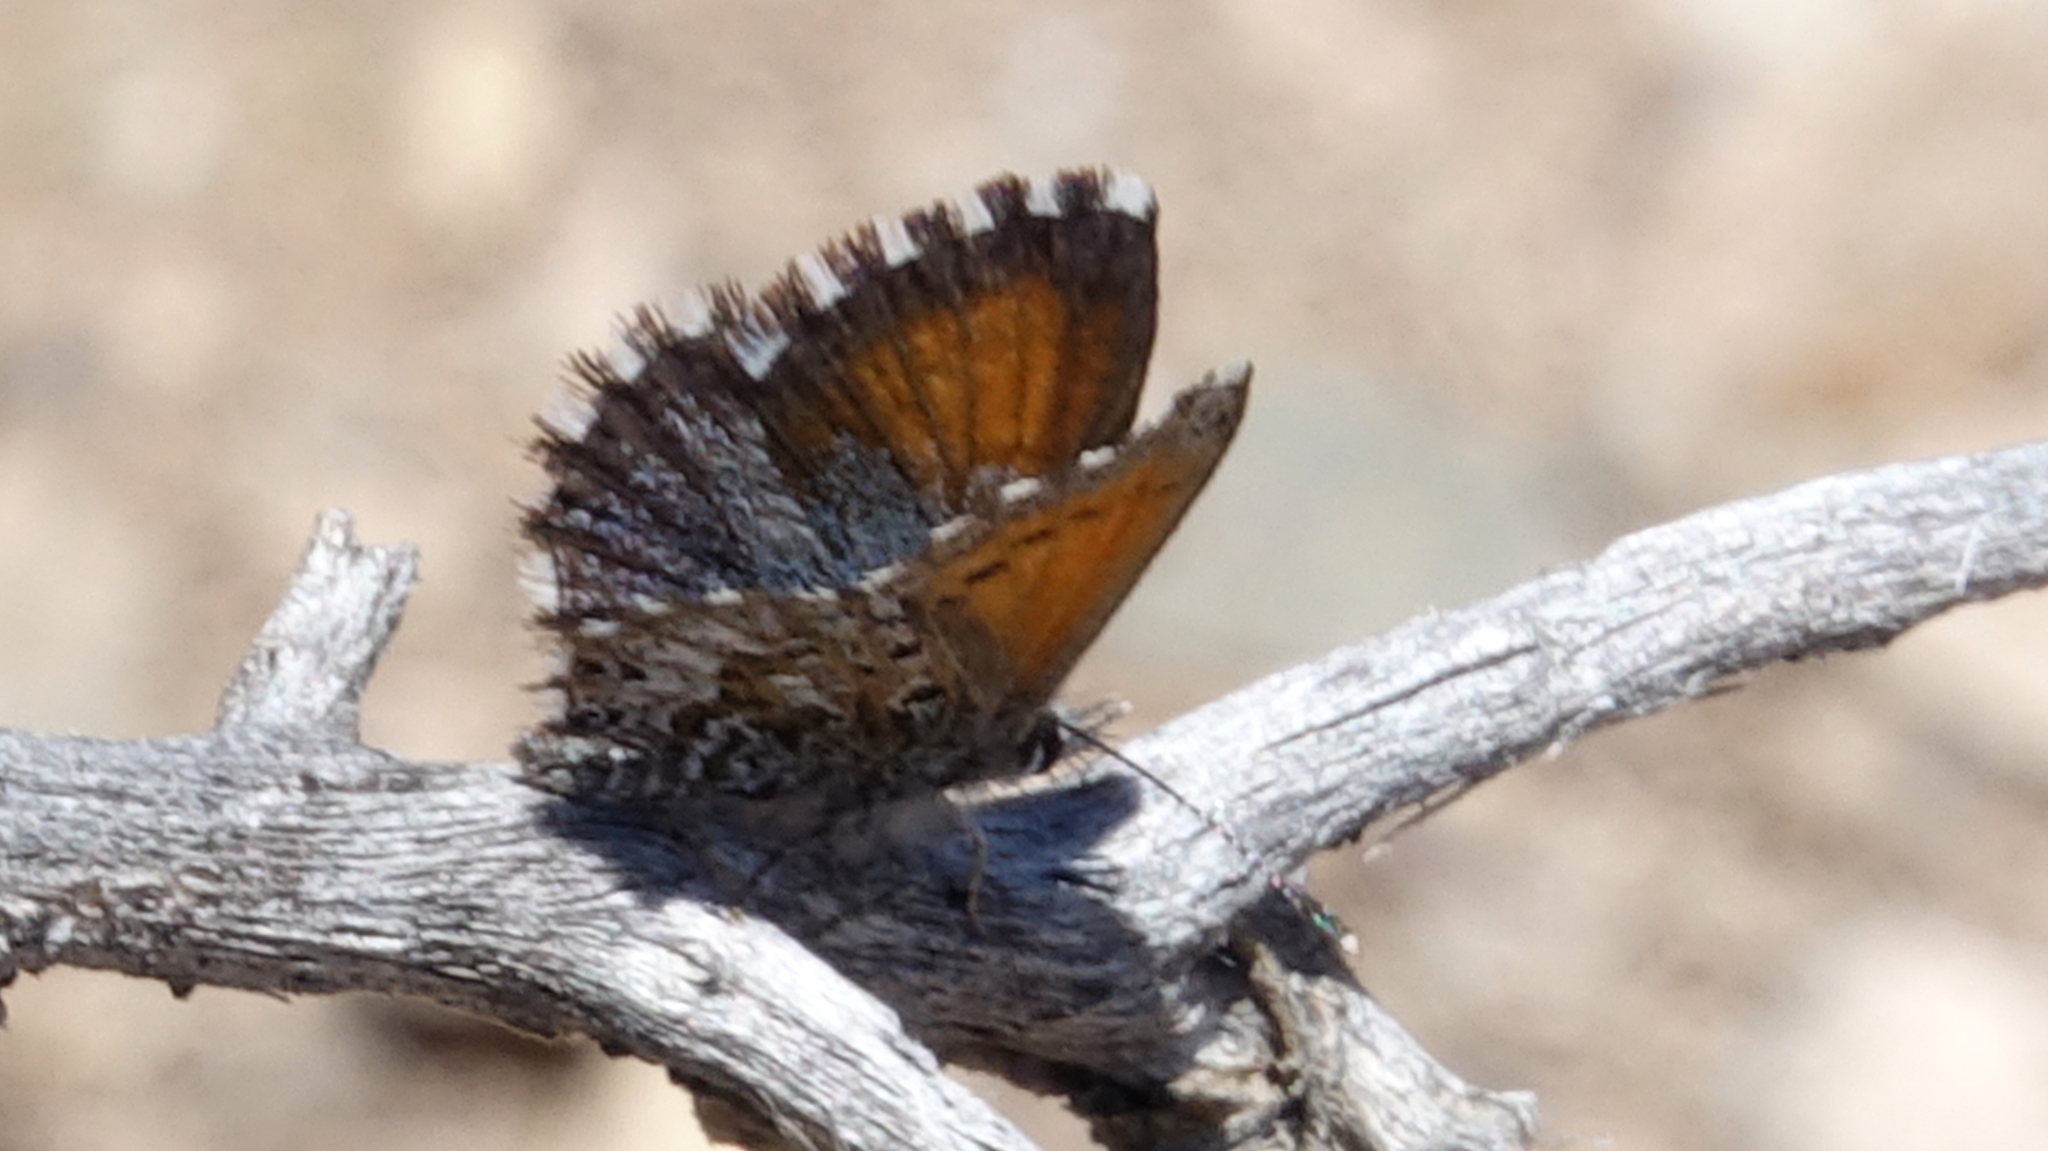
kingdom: Animalia
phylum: Arthropoda
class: Insecta
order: Lepidoptera
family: Lycaenidae
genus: Pseudolucia
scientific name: Pseudolucia grata
